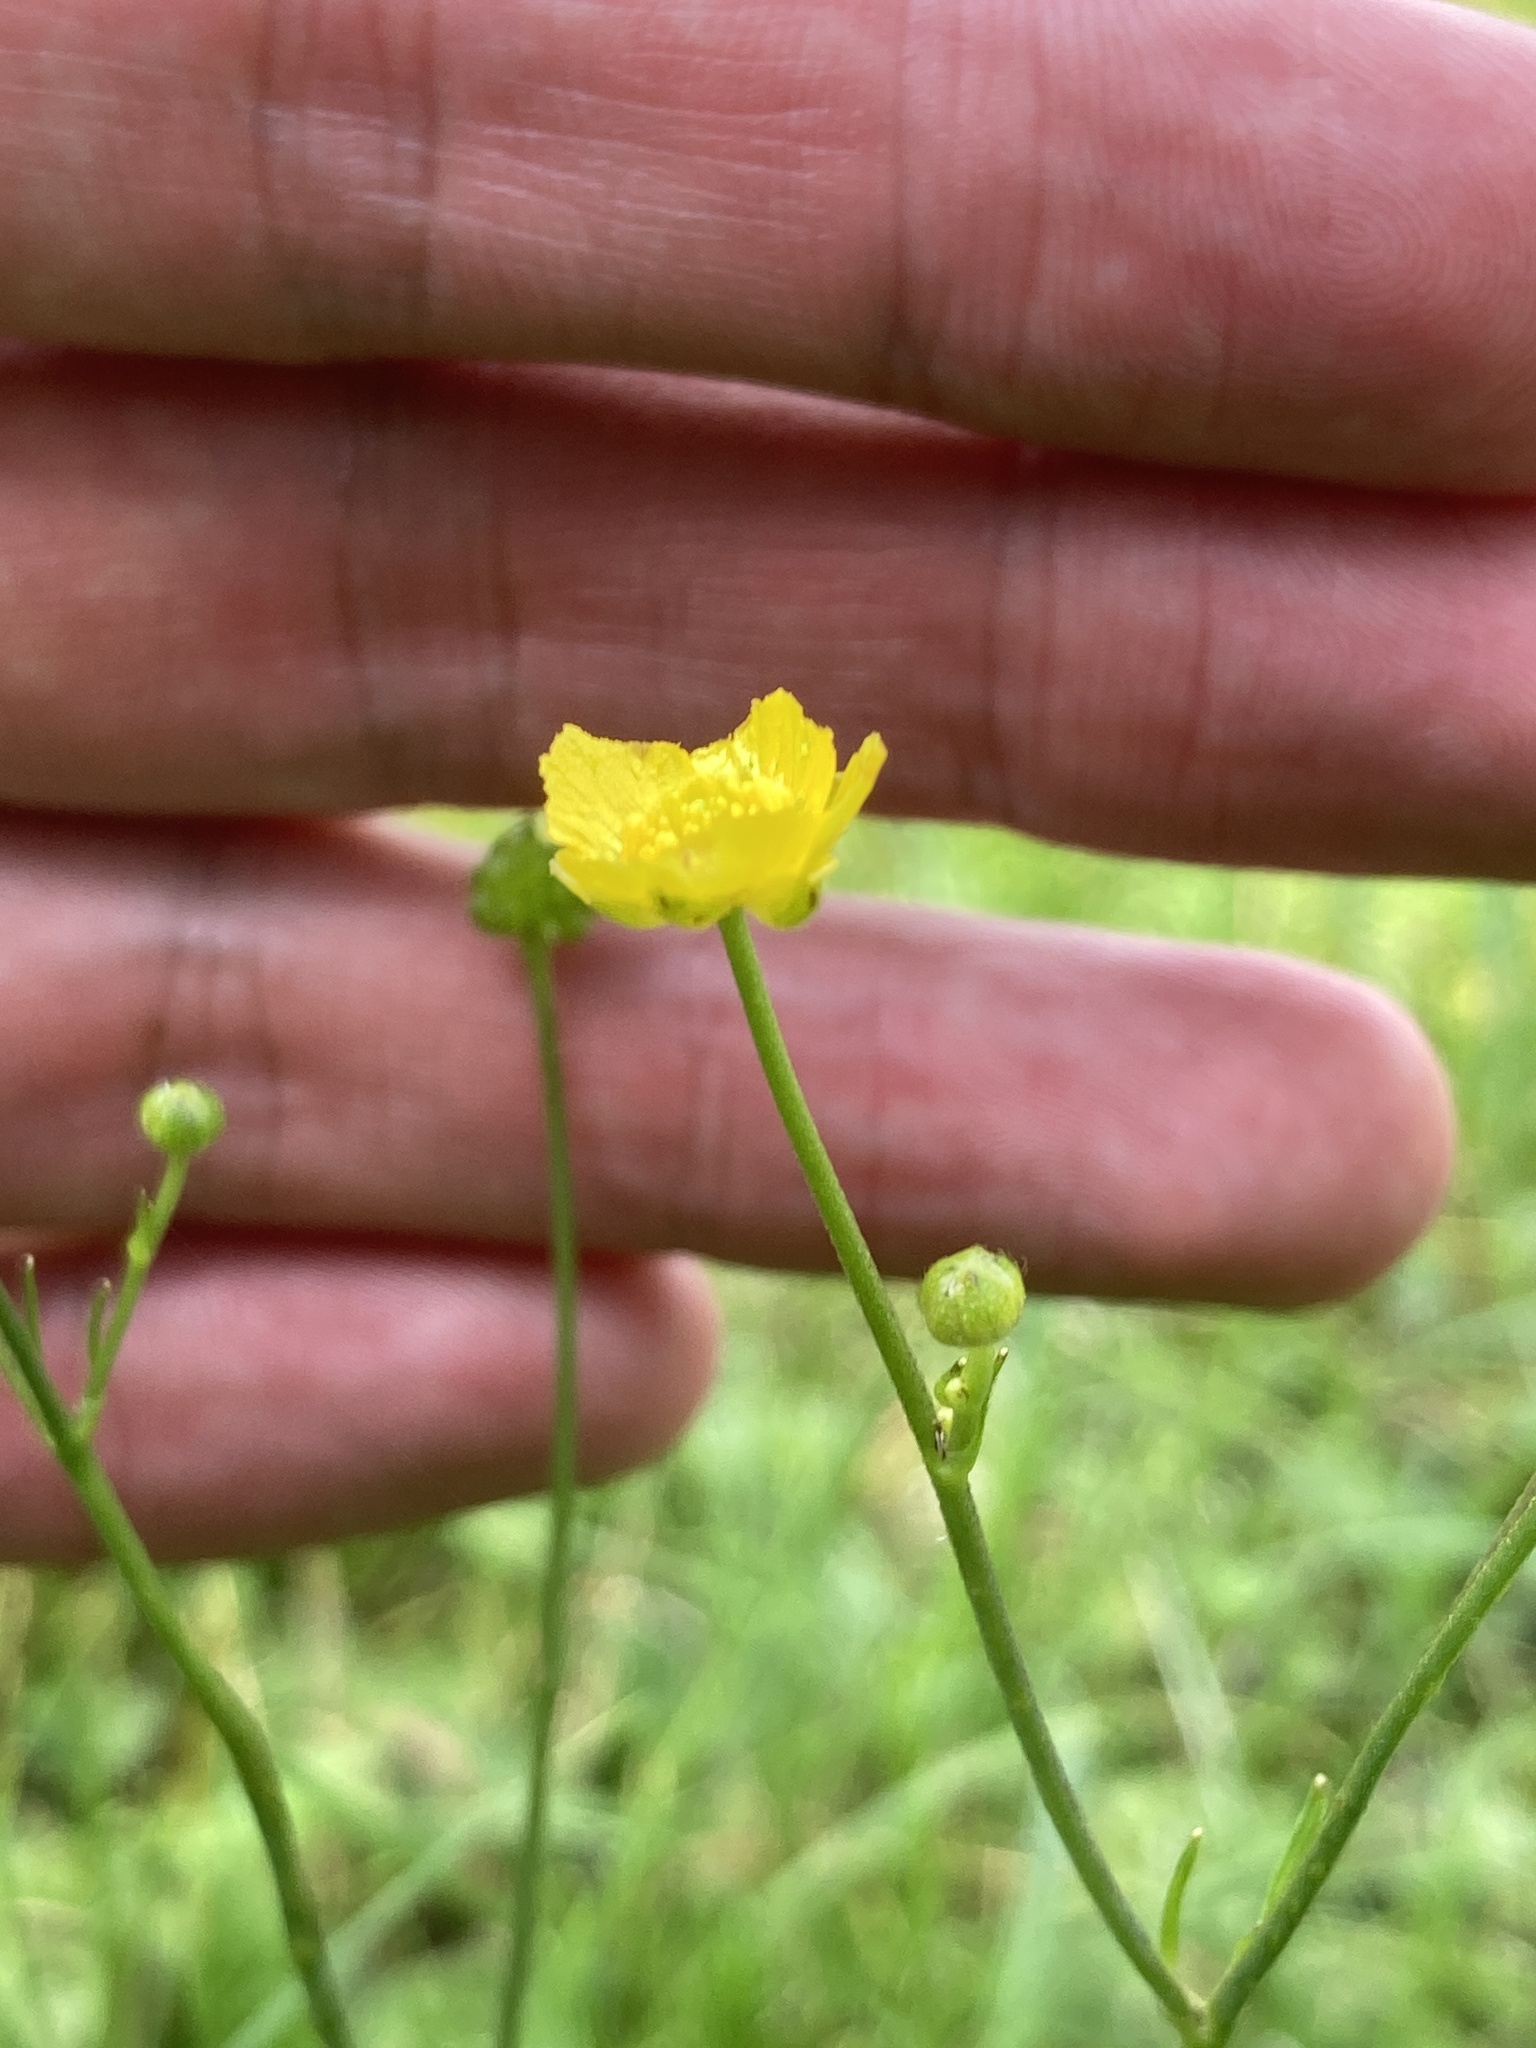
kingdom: Plantae
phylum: Tracheophyta
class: Magnoliopsida
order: Ranunculales
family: Ranunculaceae
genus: Ranunculus
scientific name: Ranunculus acris
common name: Meadow buttercup
